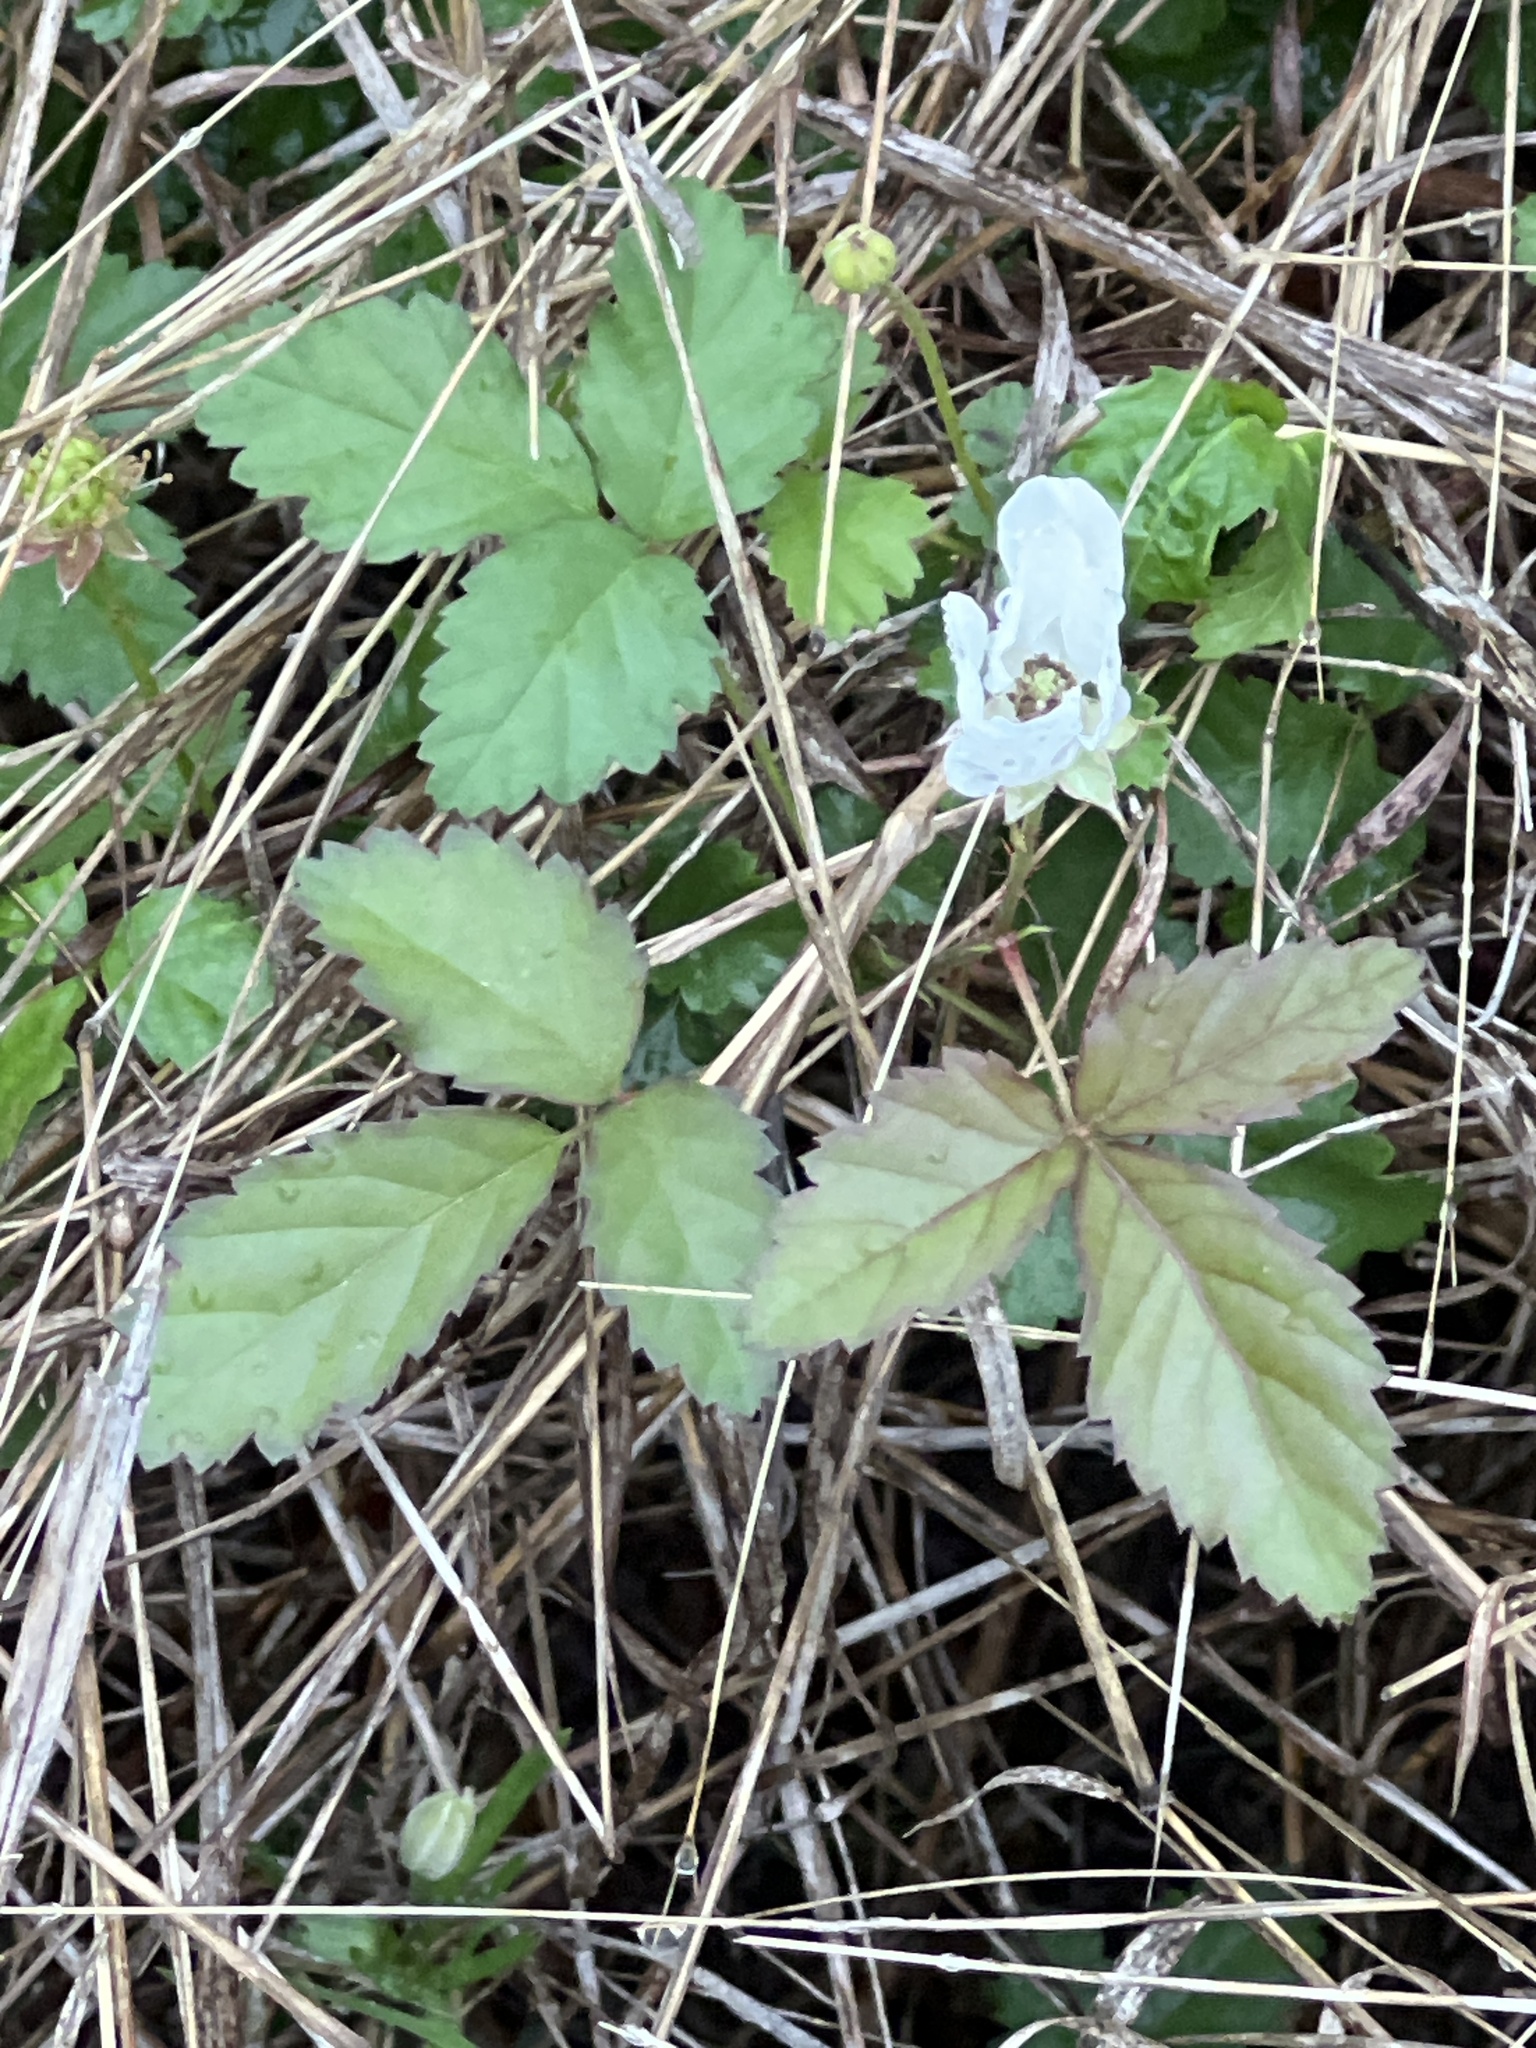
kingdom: Plantae
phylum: Tracheophyta
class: Magnoliopsida
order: Rosales
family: Rosaceae
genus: Rubus
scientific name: Rubus trivialis
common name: Southern dewberry
